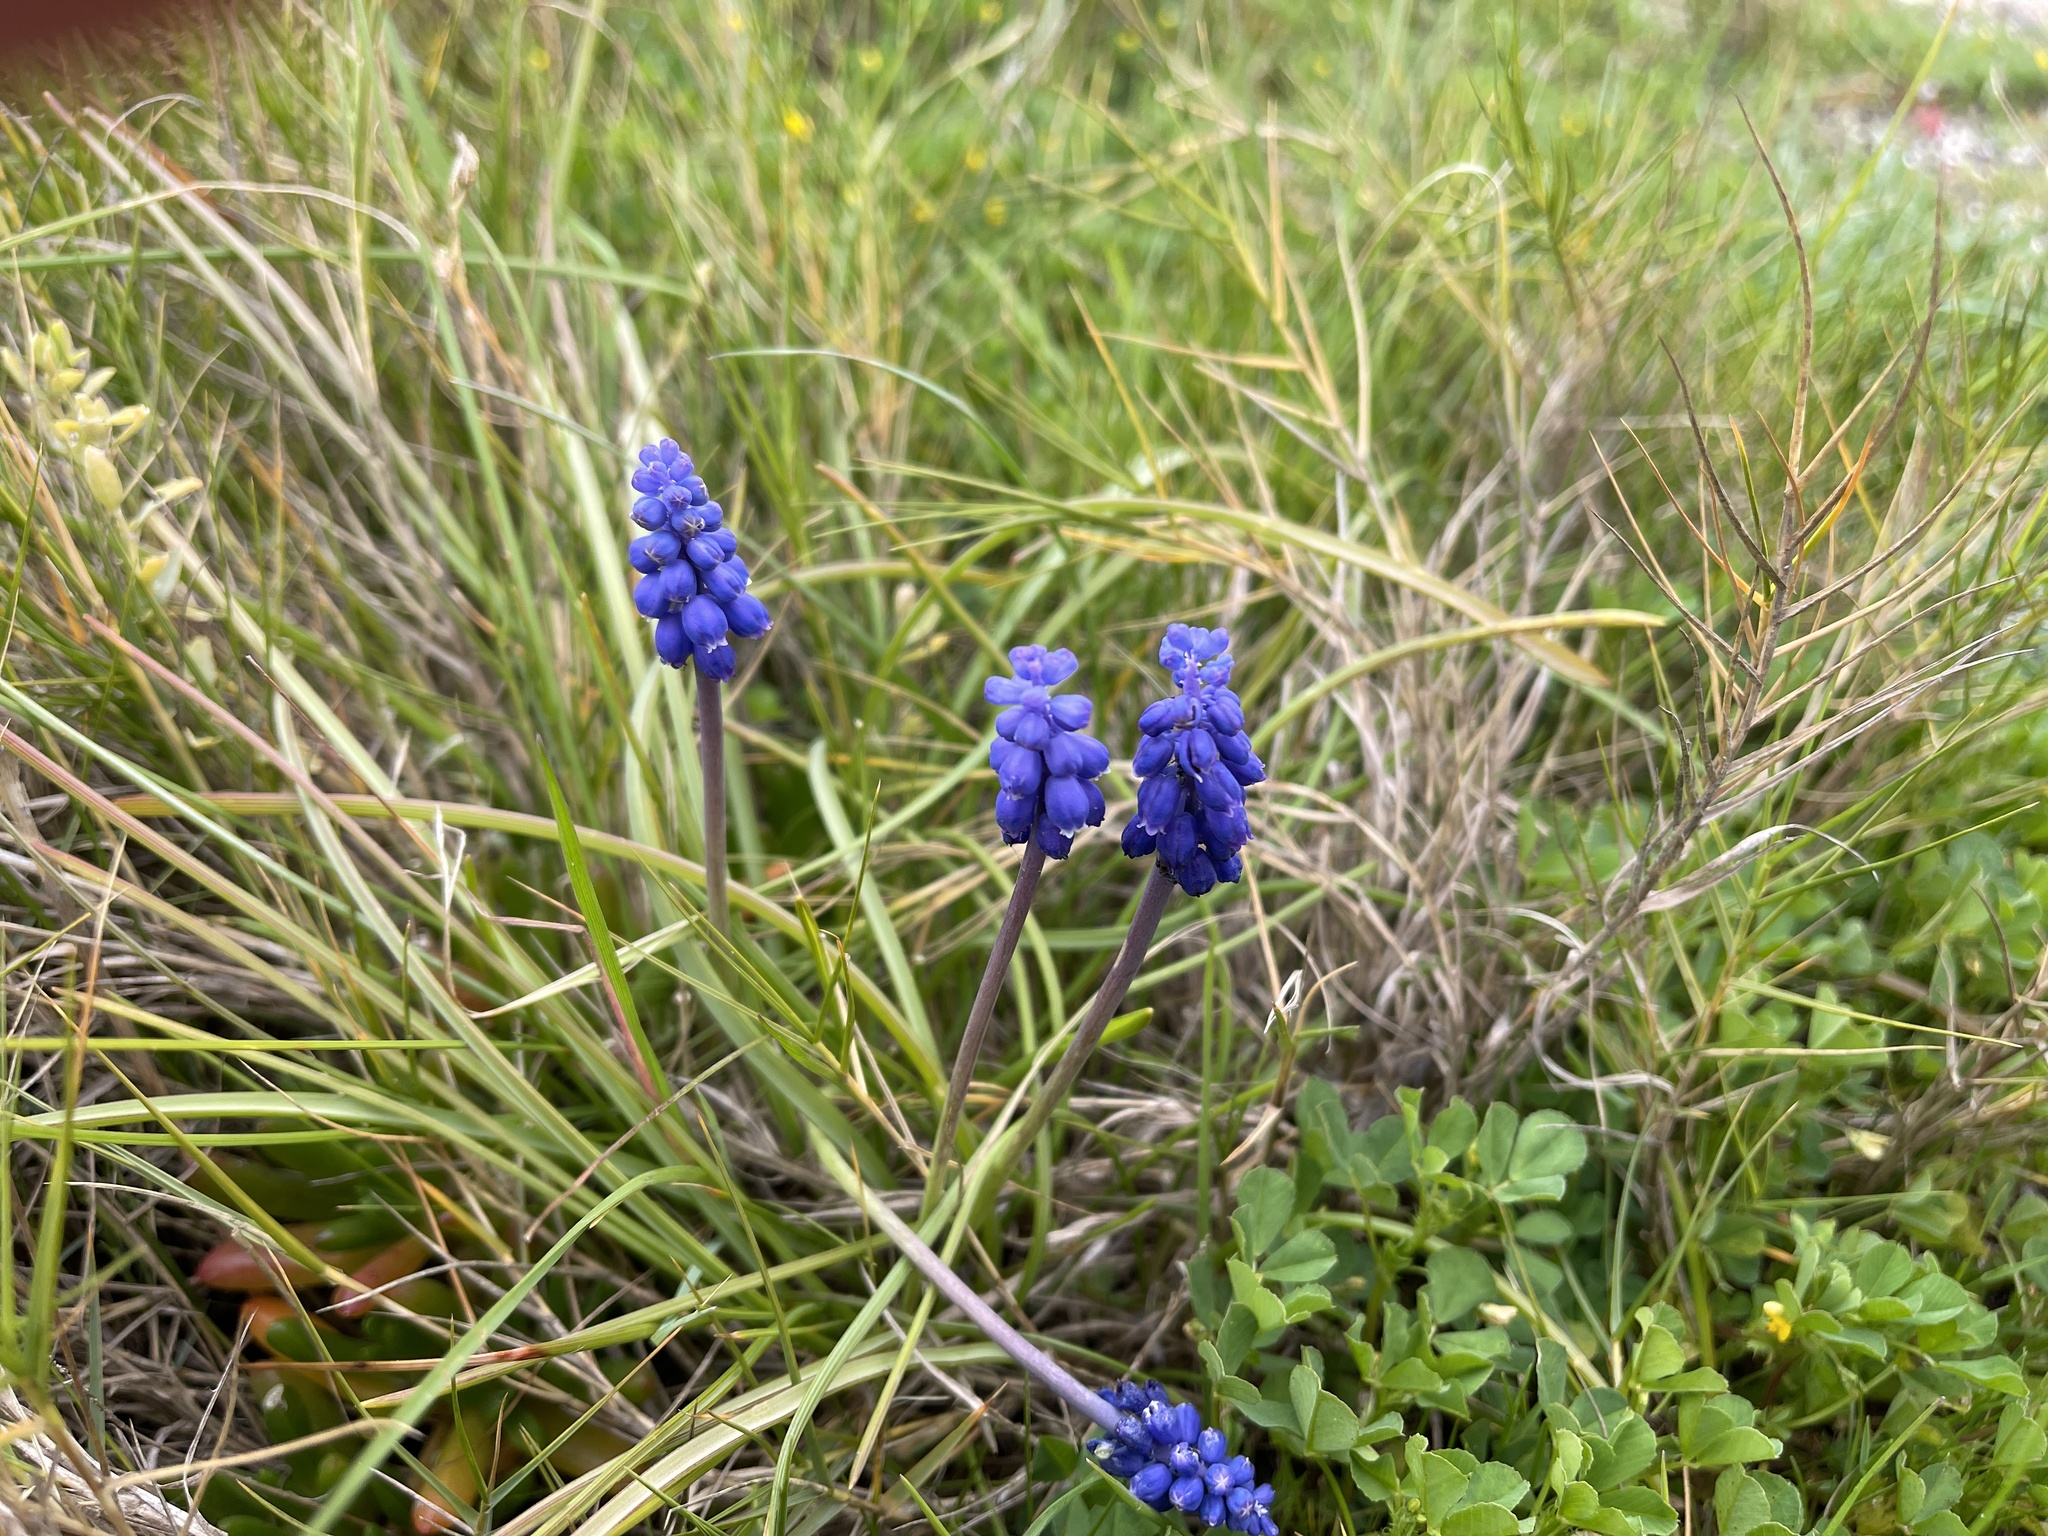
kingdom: Plantae
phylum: Tracheophyta
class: Liliopsida
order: Asparagales
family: Asparagaceae
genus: Muscari
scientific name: Muscari armeniacum
